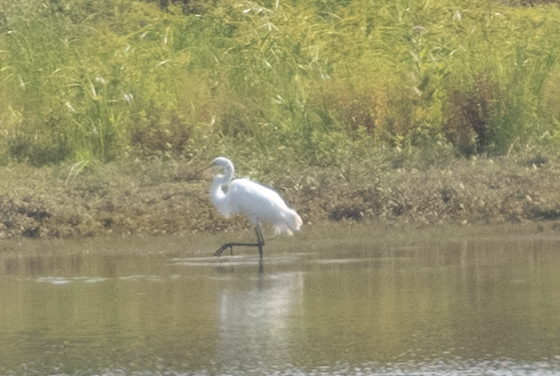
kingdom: Animalia
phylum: Chordata
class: Aves
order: Pelecaniformes
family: Ardeidae
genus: Ardea
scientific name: Ardea alba
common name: Great egret
